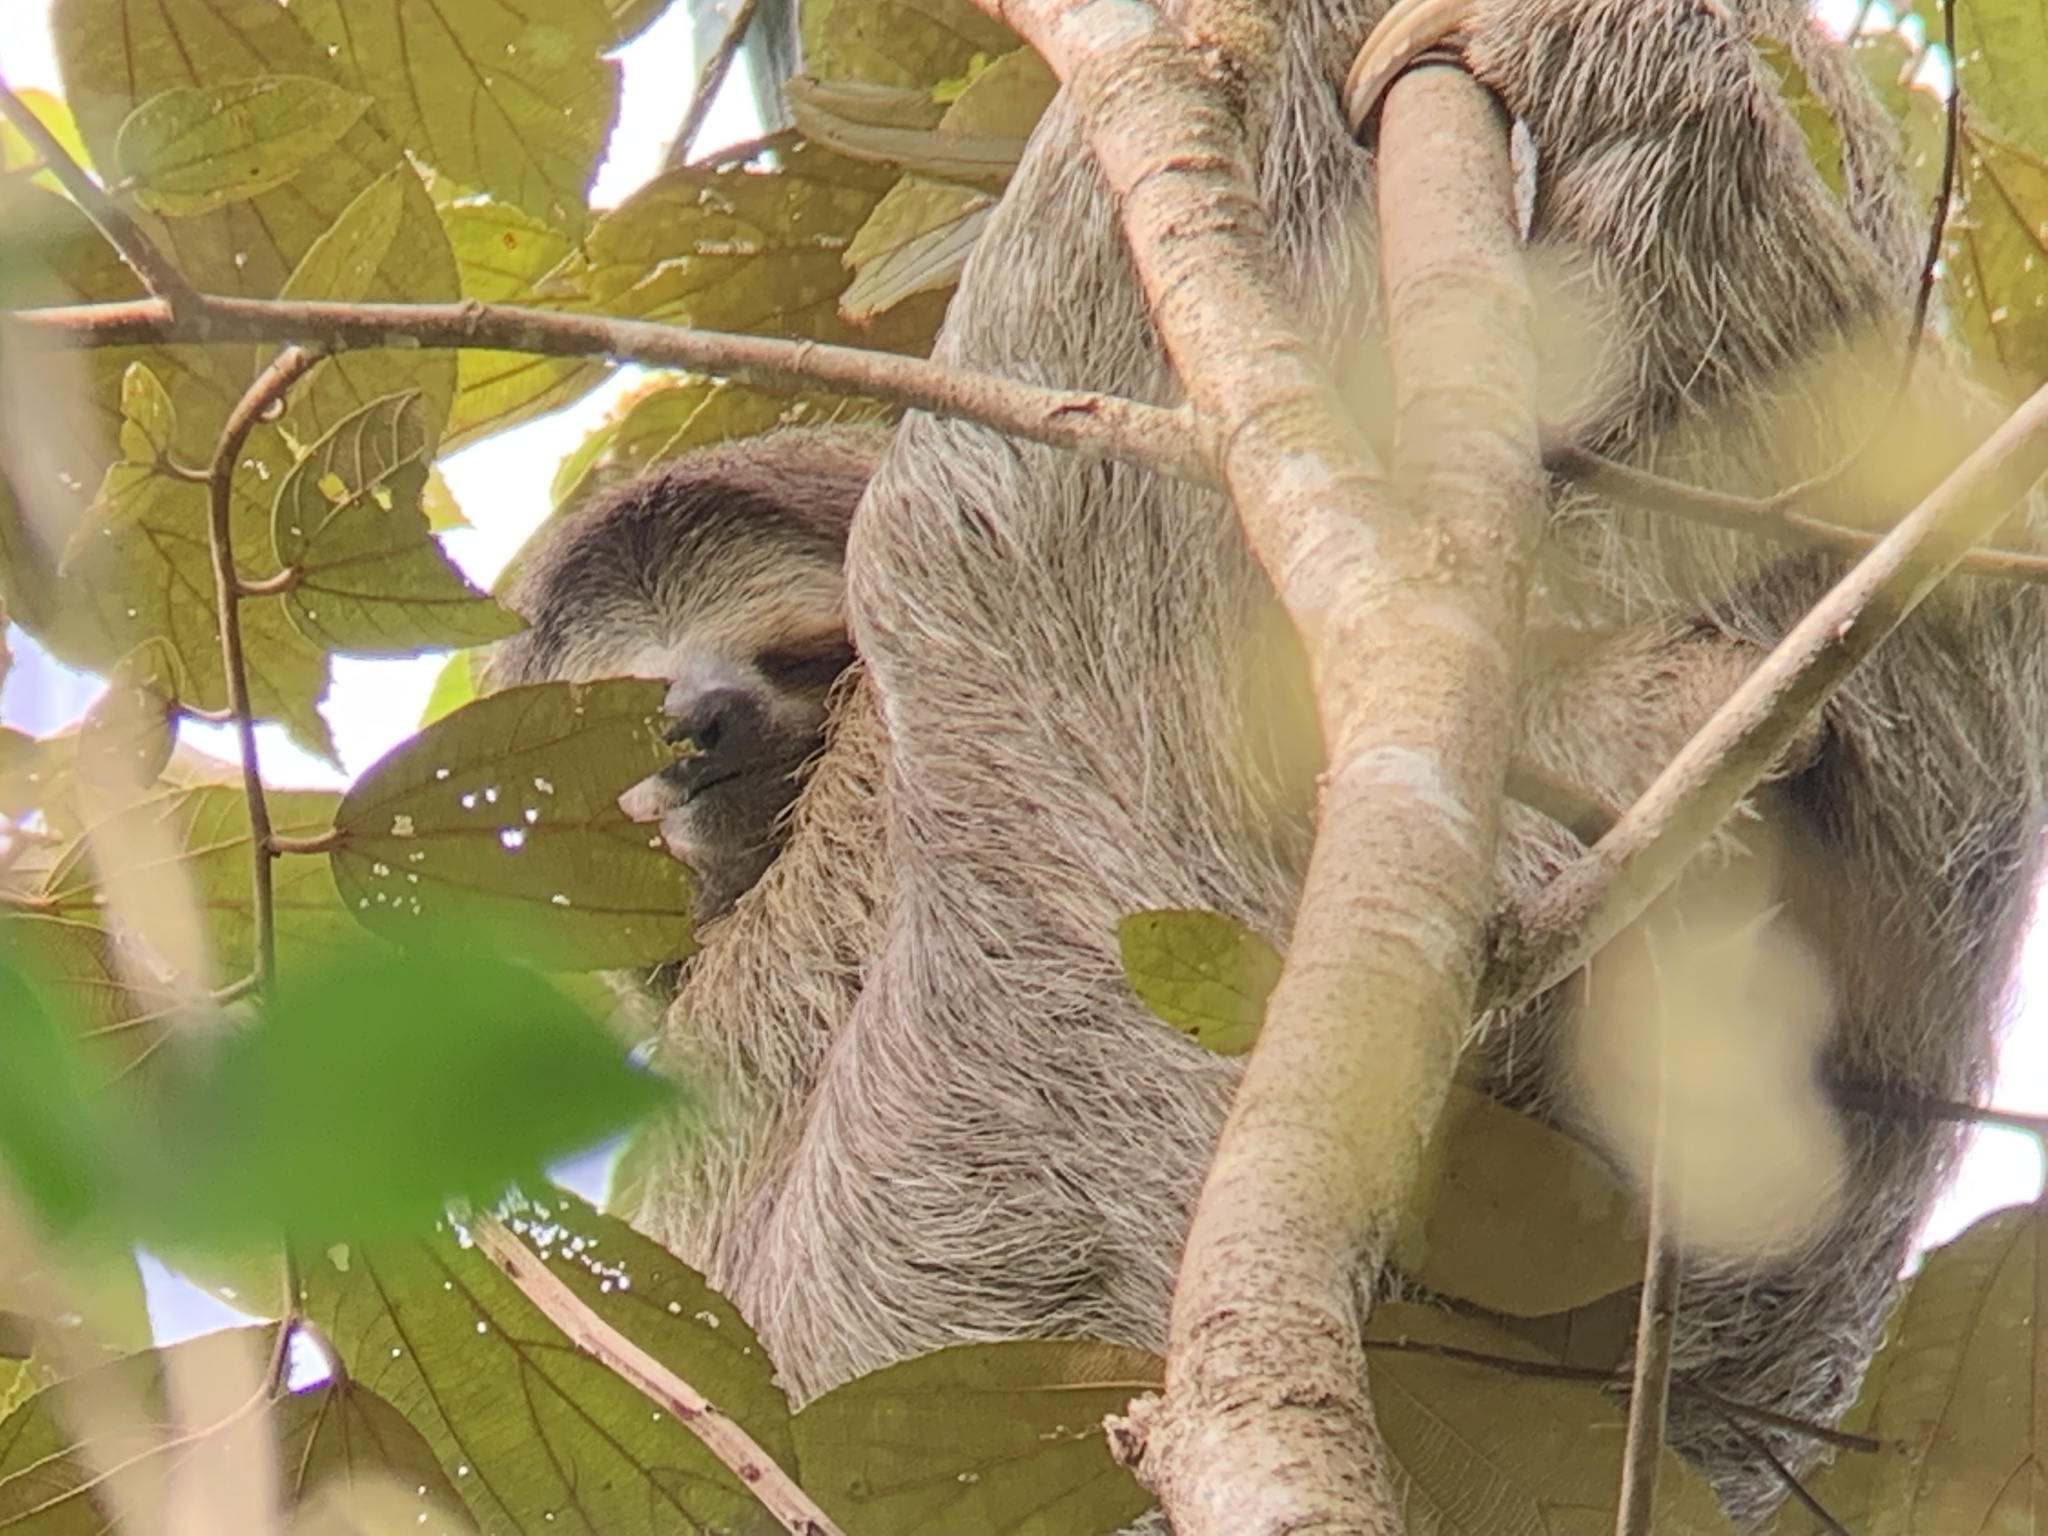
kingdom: Animalia
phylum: Chordata
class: Mammalia
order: Pilosa
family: Bradypodidae
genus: Bradypus
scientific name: Bradypus variegatus
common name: Brown-throated three-toed sloth
